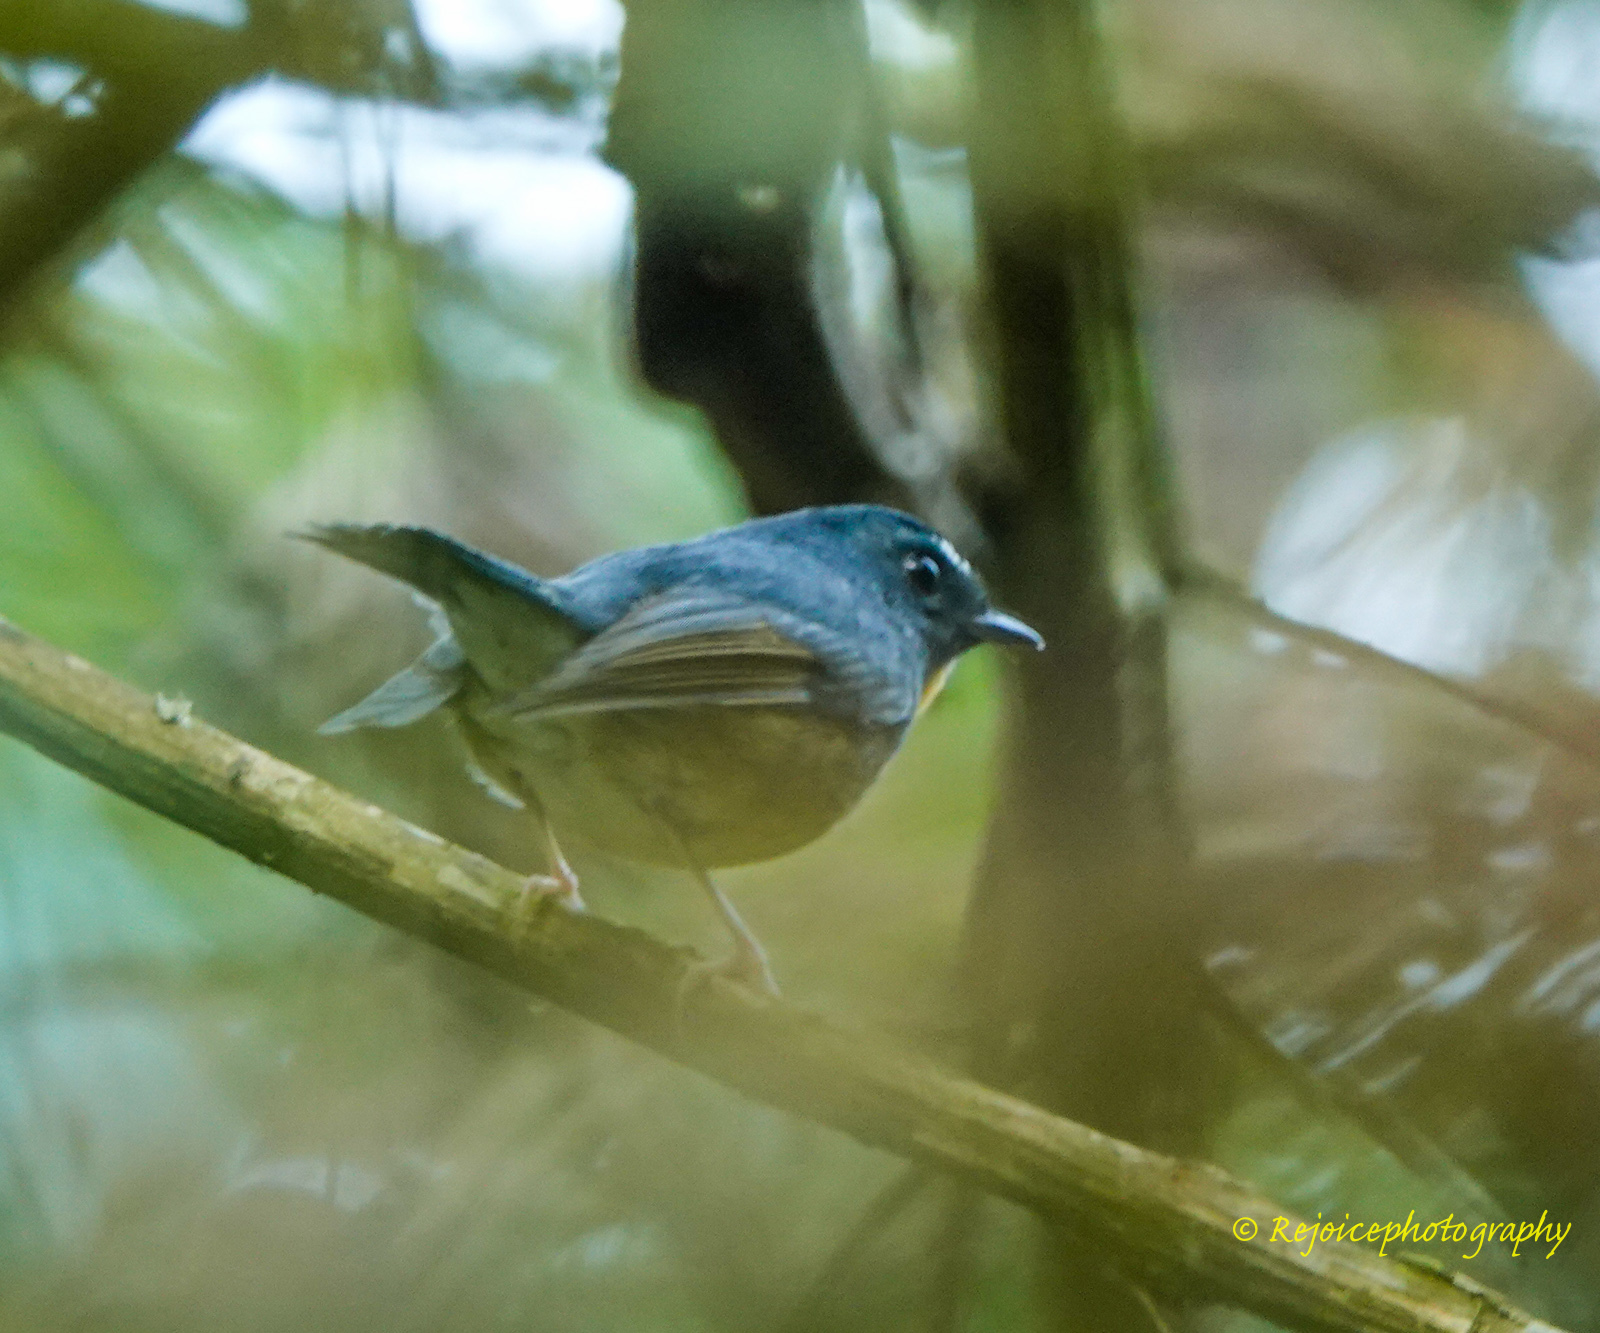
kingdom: Animalia
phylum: Chordata
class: Aves
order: Passeriformes
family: Muscicapidae
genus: Ficedula
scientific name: Ficedula hyperythra
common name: Snowy-browed flycatcher
